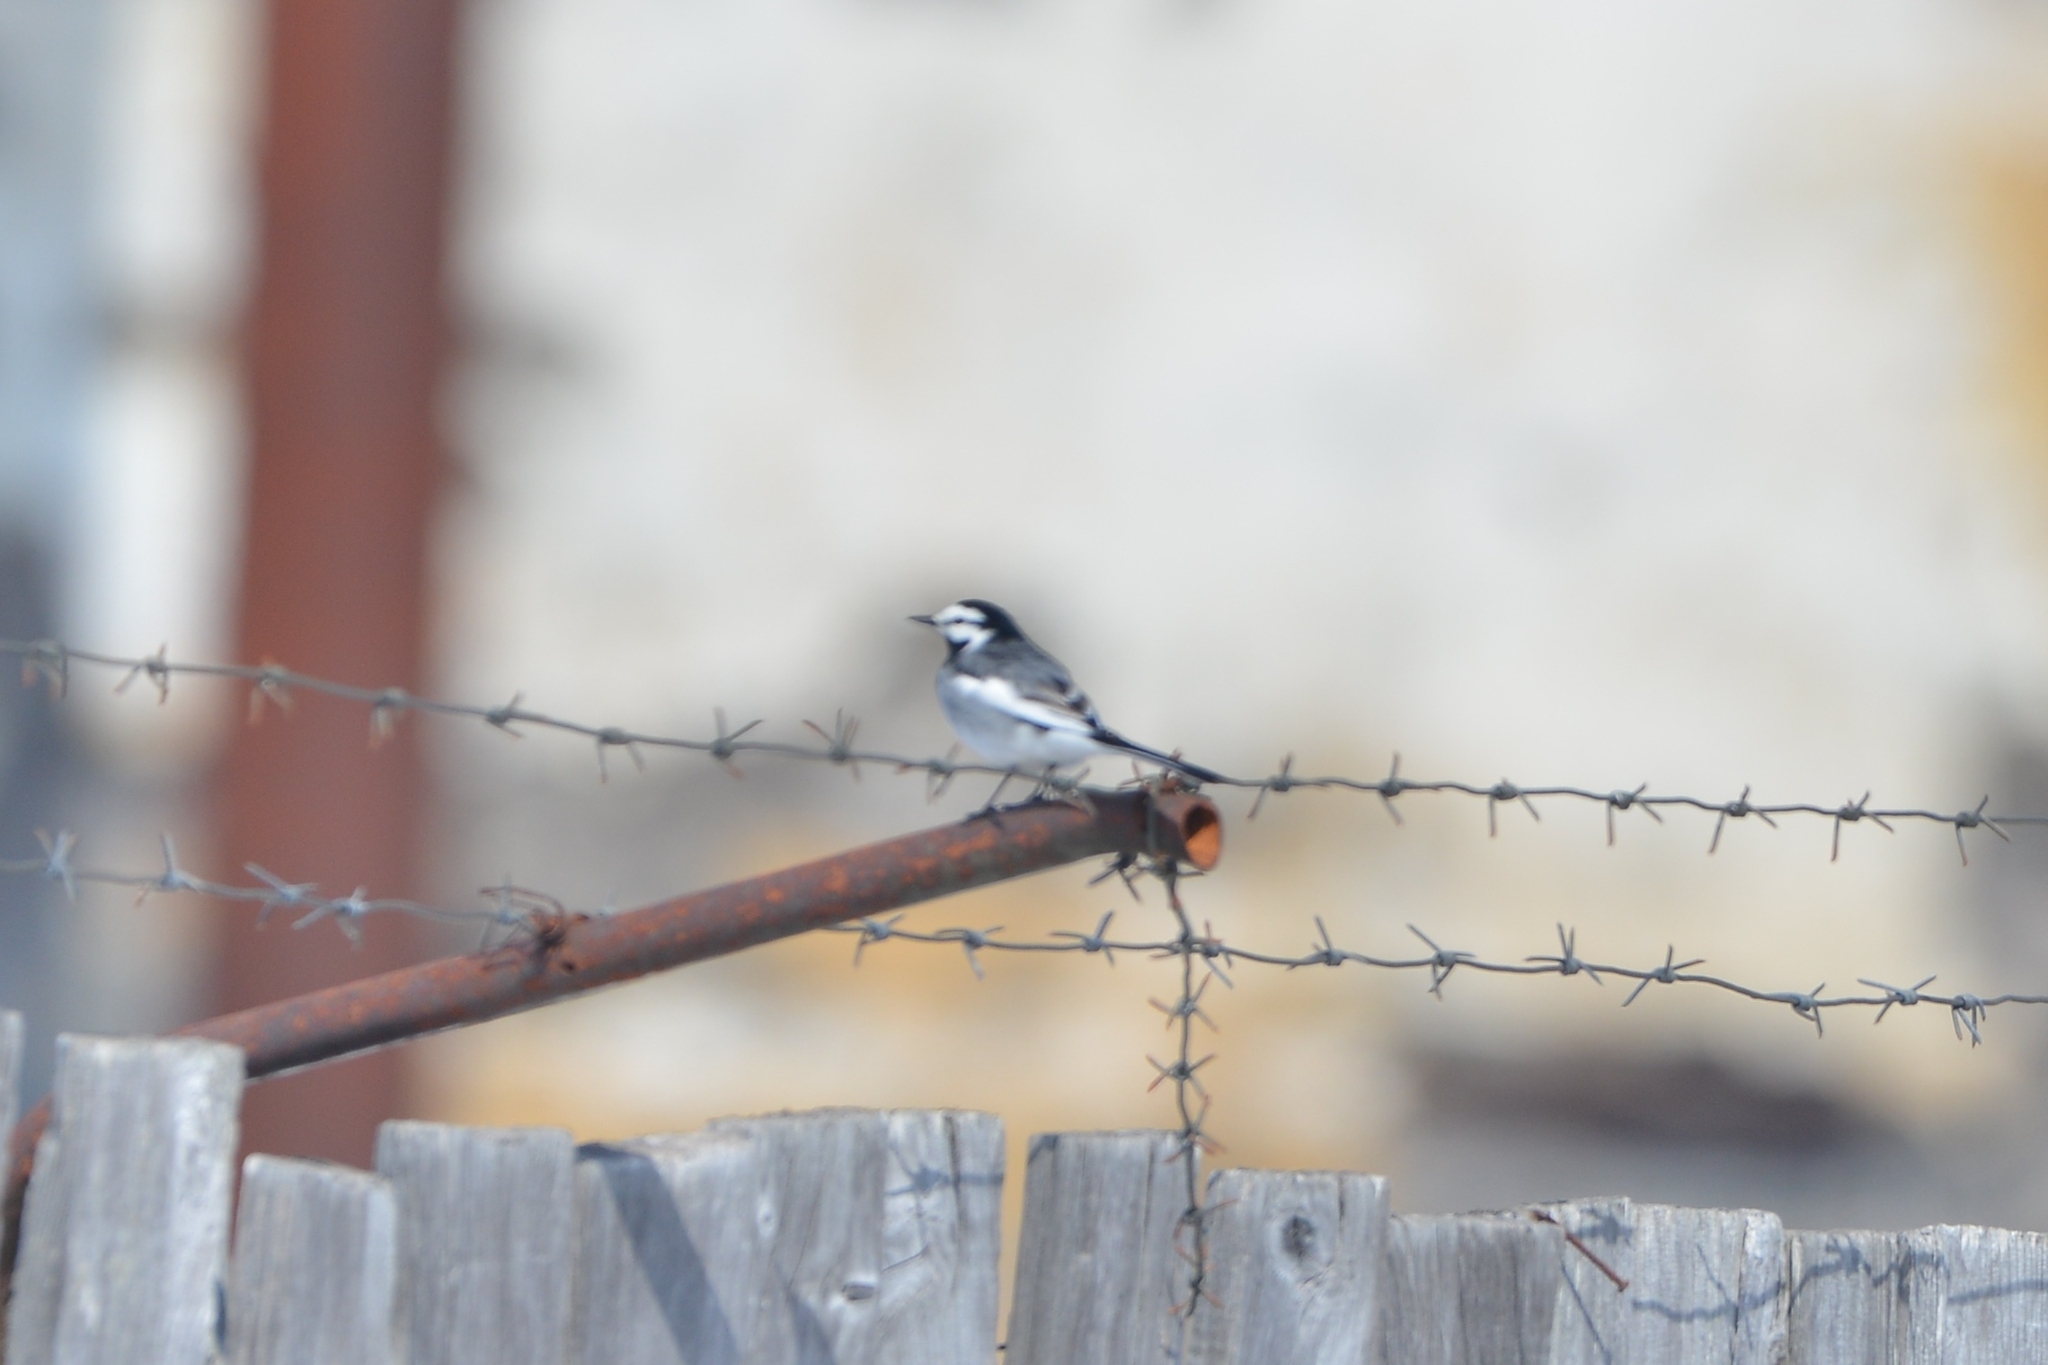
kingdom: Animalia
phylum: Chordata
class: Aves
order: Passeriformes
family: Motacillidae
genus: Motacilla
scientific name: Motacilla alba
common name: White wagtail
